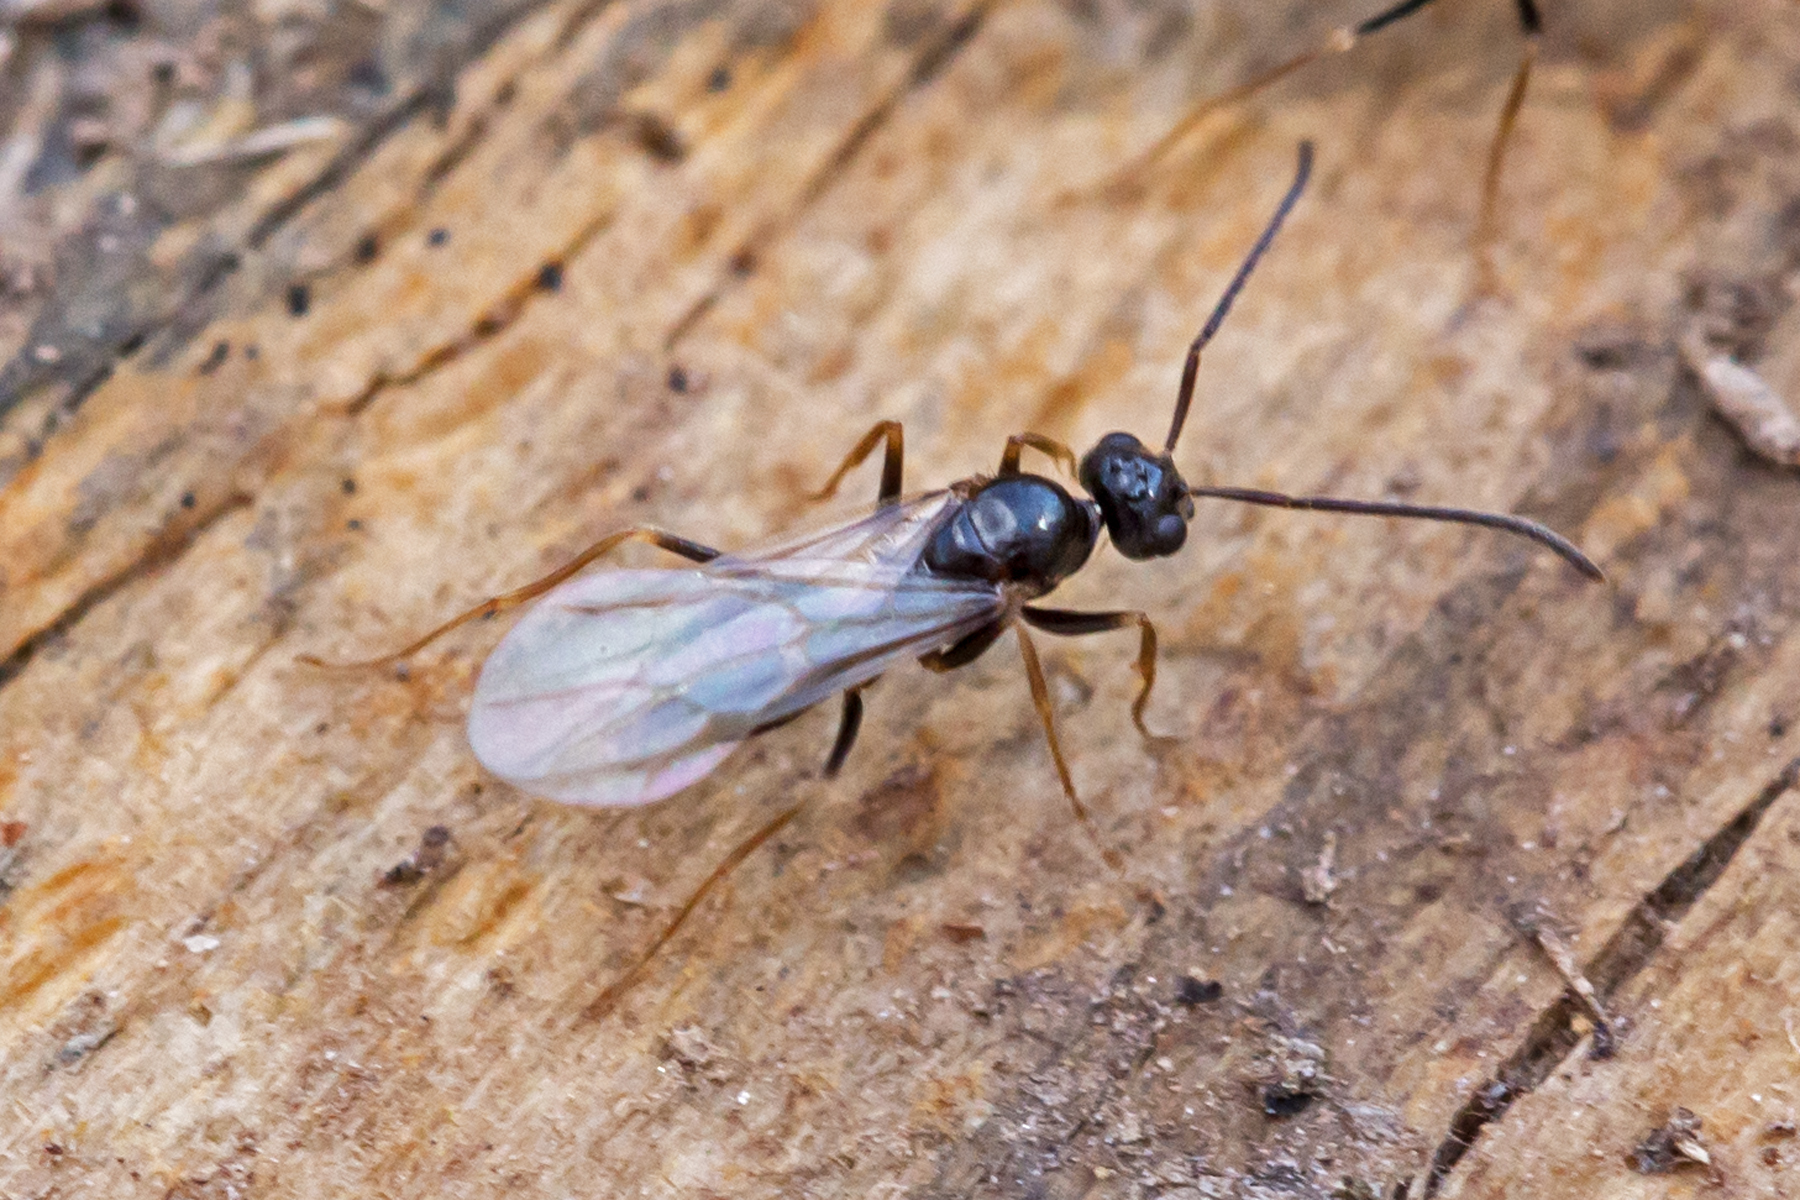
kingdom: Animalia
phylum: Arthropoda
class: Insecta
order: Hymenoptera
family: Formicidae
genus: Prenolepis
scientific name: Prenolepis imparis
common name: Small honey ant
